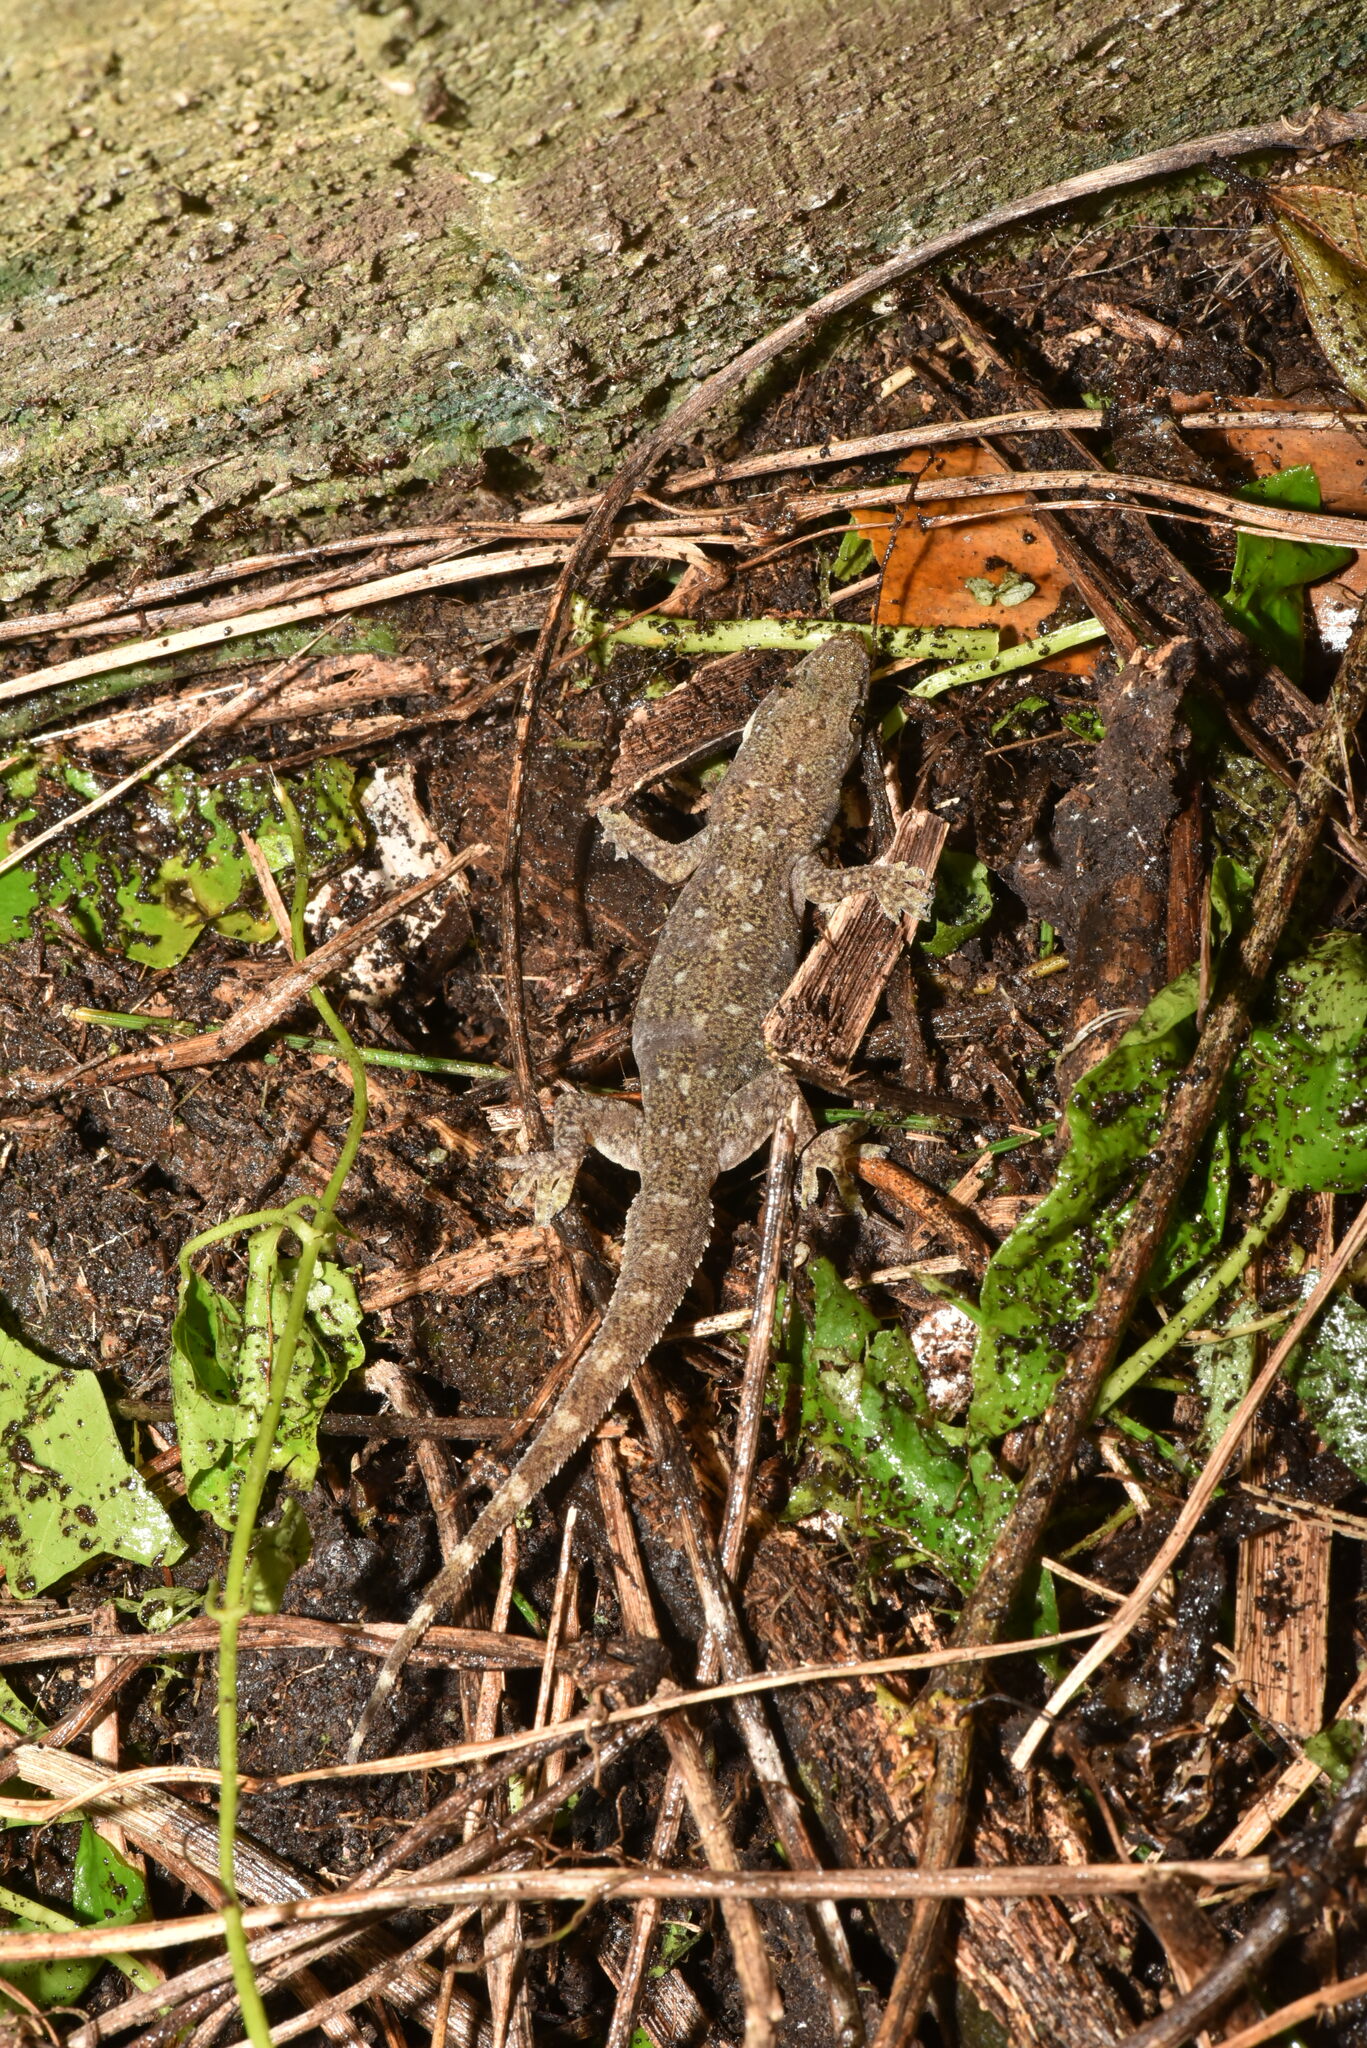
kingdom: Animalia
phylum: Chordata
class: Squamata
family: Gekkonidae
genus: Hemidactylus
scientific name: Hemidactylus stejnegeri
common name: Stejneger's leaftoed gecko
